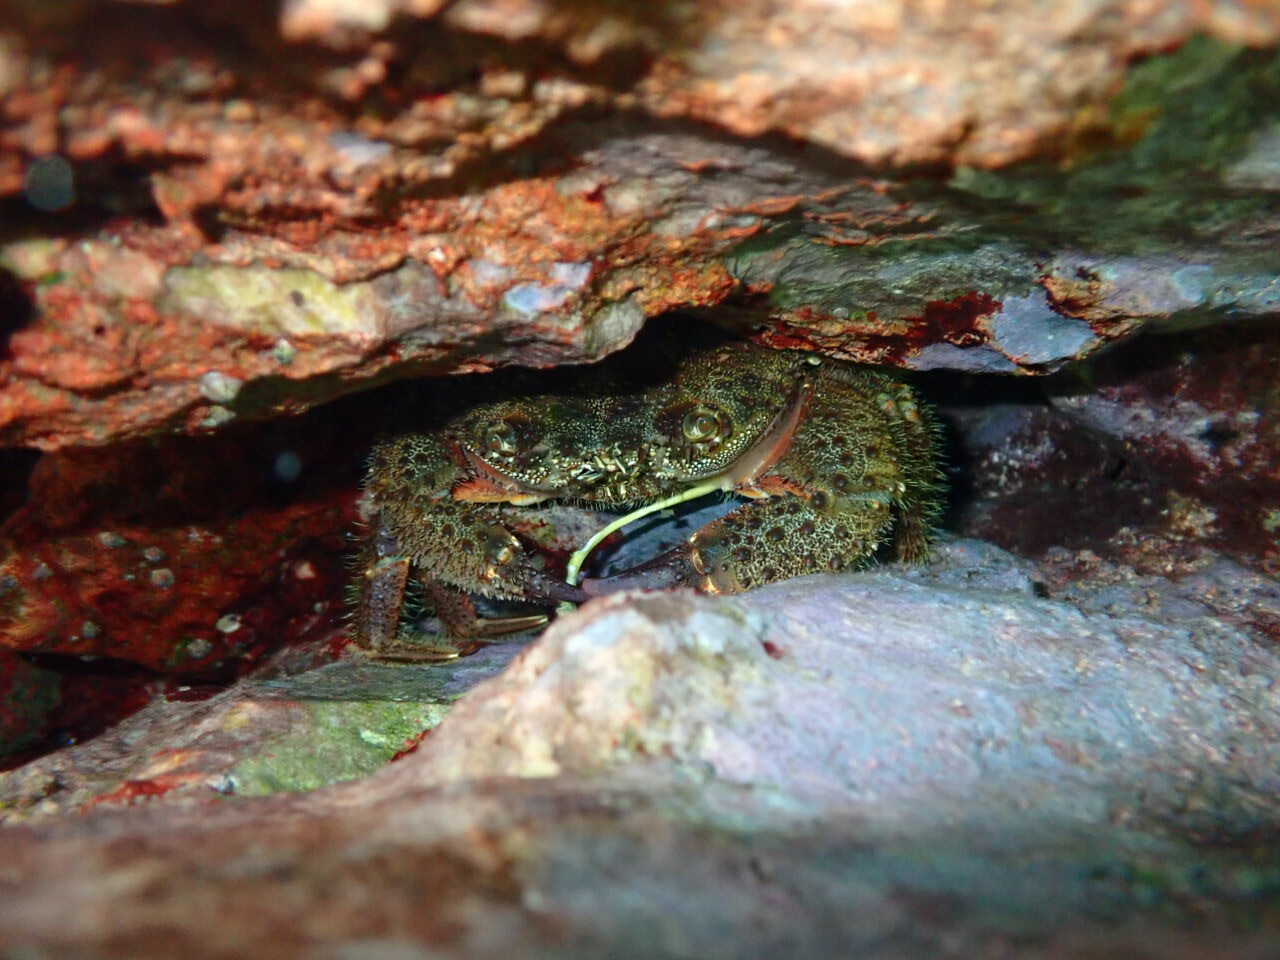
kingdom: Animalia
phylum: Arthropoda
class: Malacostraca
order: Decapoda
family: Eriphiidae
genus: Eriphia
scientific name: Eriphia verrucosa
